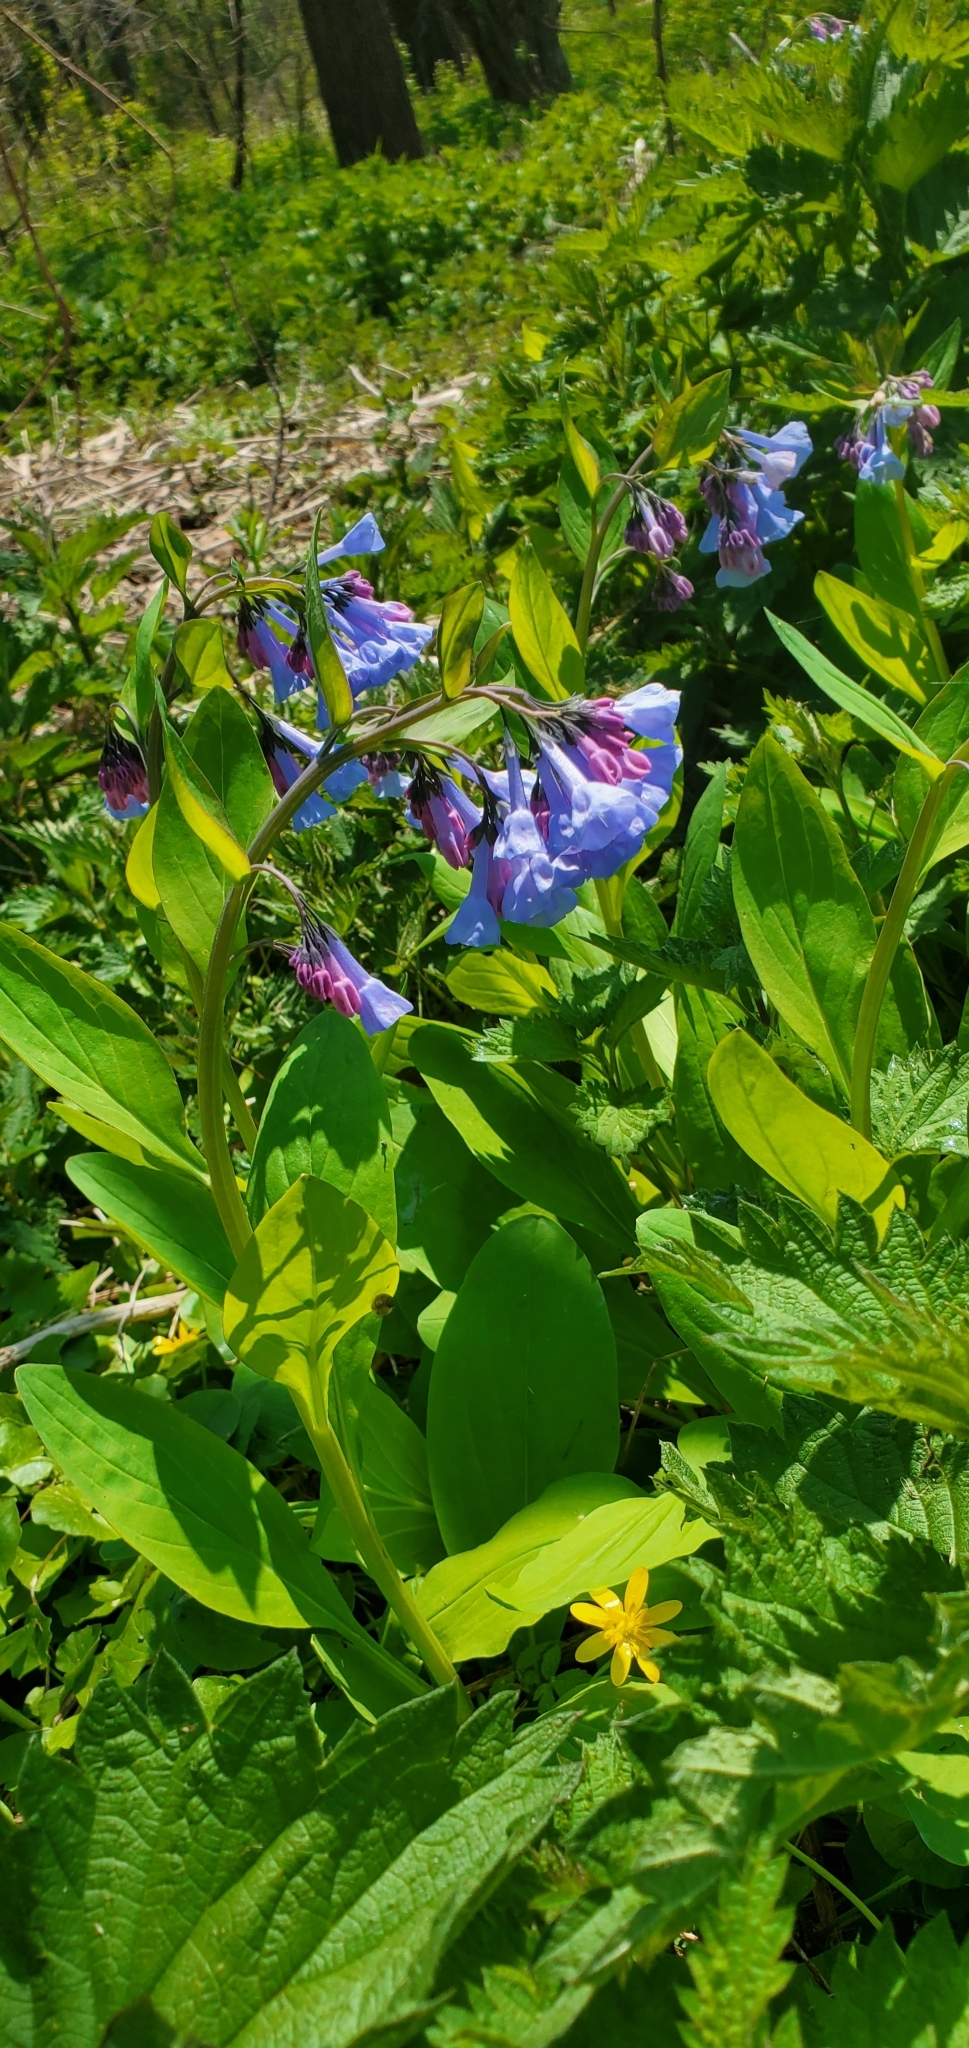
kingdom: Plantae
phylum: Tracheophyta
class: Magnoliopsida
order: Boraginales
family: Boraginaceae
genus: Mertensia
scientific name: Mertensia virginica
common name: Virginia bluebells
